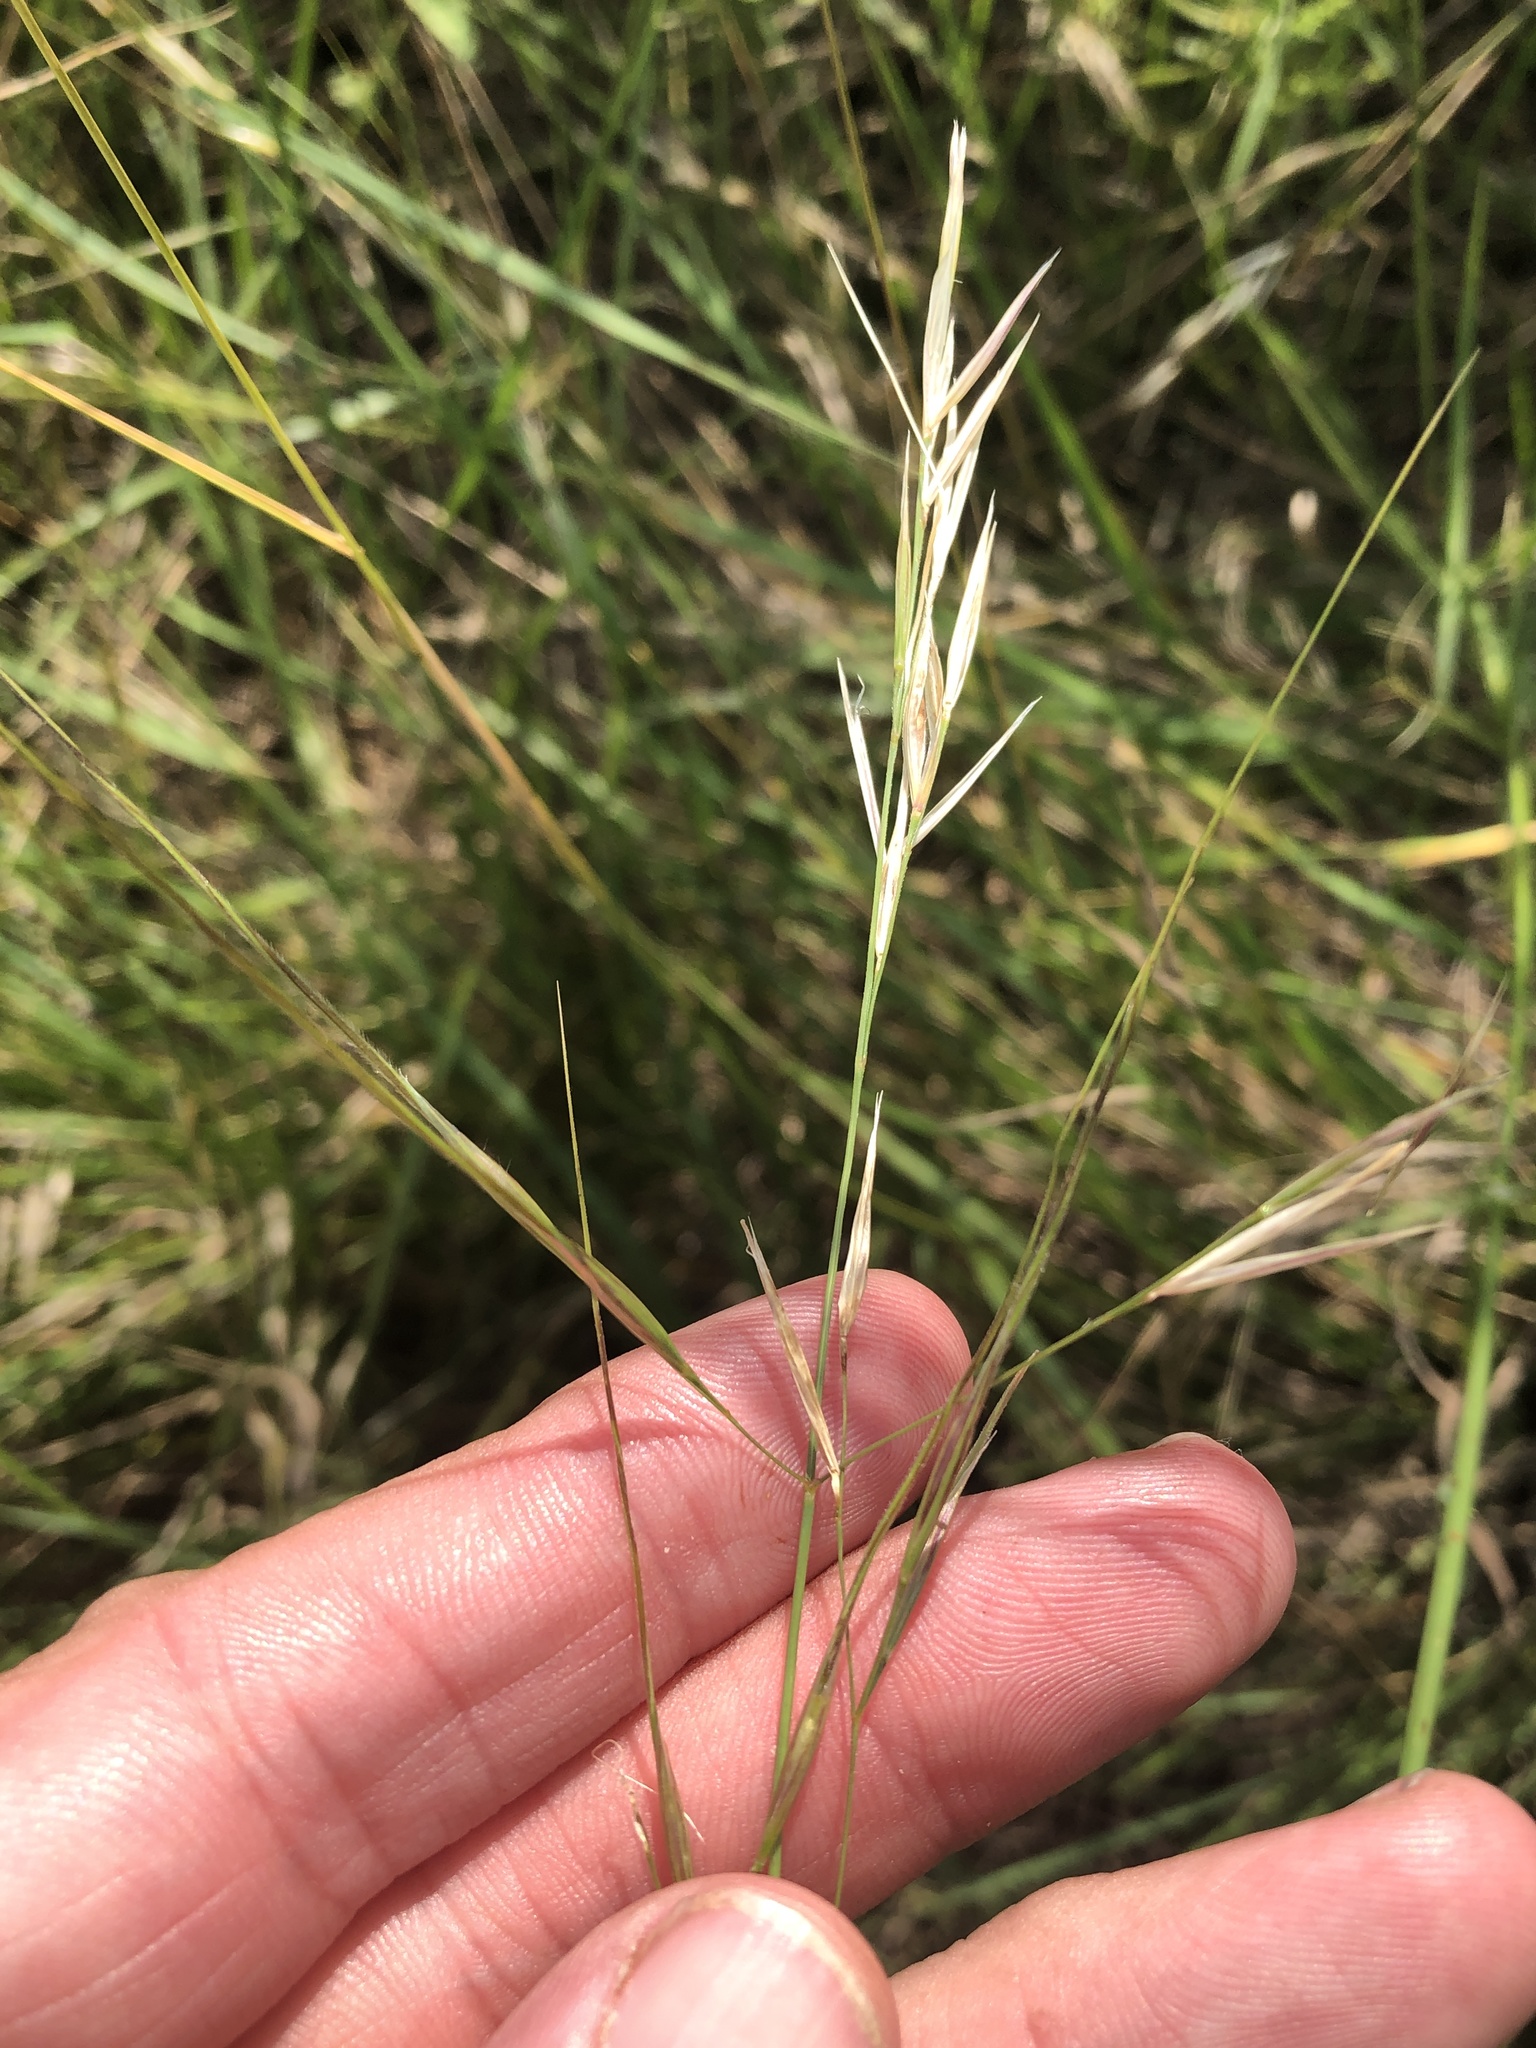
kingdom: Plantae
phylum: Tracheophyta
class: Liliopsida
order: Poales
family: Poaceae
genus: Nassella
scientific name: Nassella leucotricha
